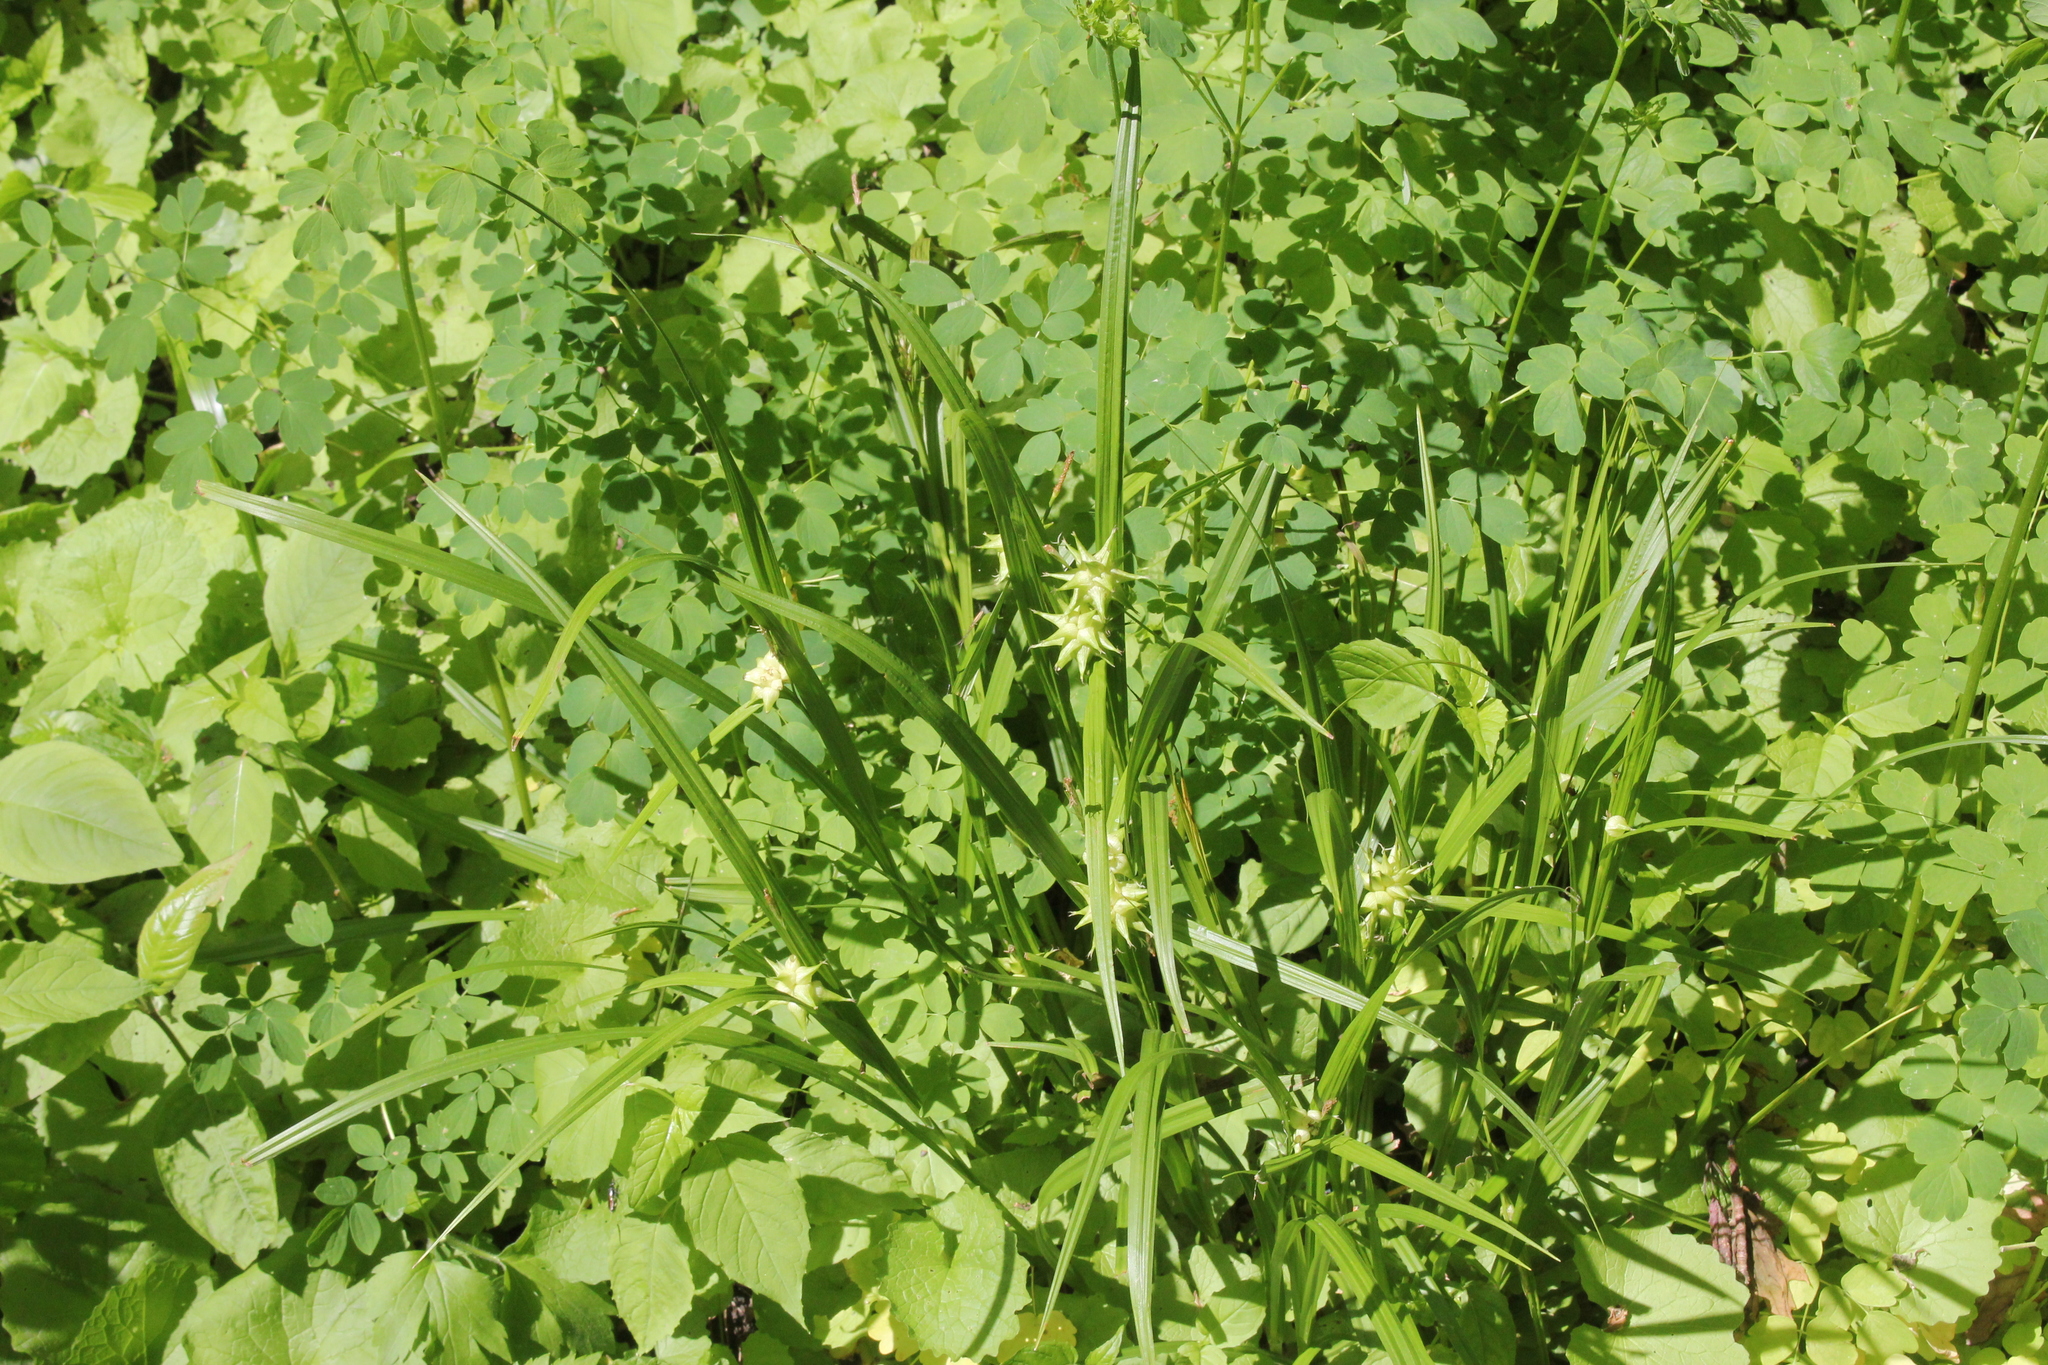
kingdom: Plantae
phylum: Tracheophyta
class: Liliopsida
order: Poales
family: Cyperaceae
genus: Carex
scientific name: Carex grayi
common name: Asa gray's sedge
